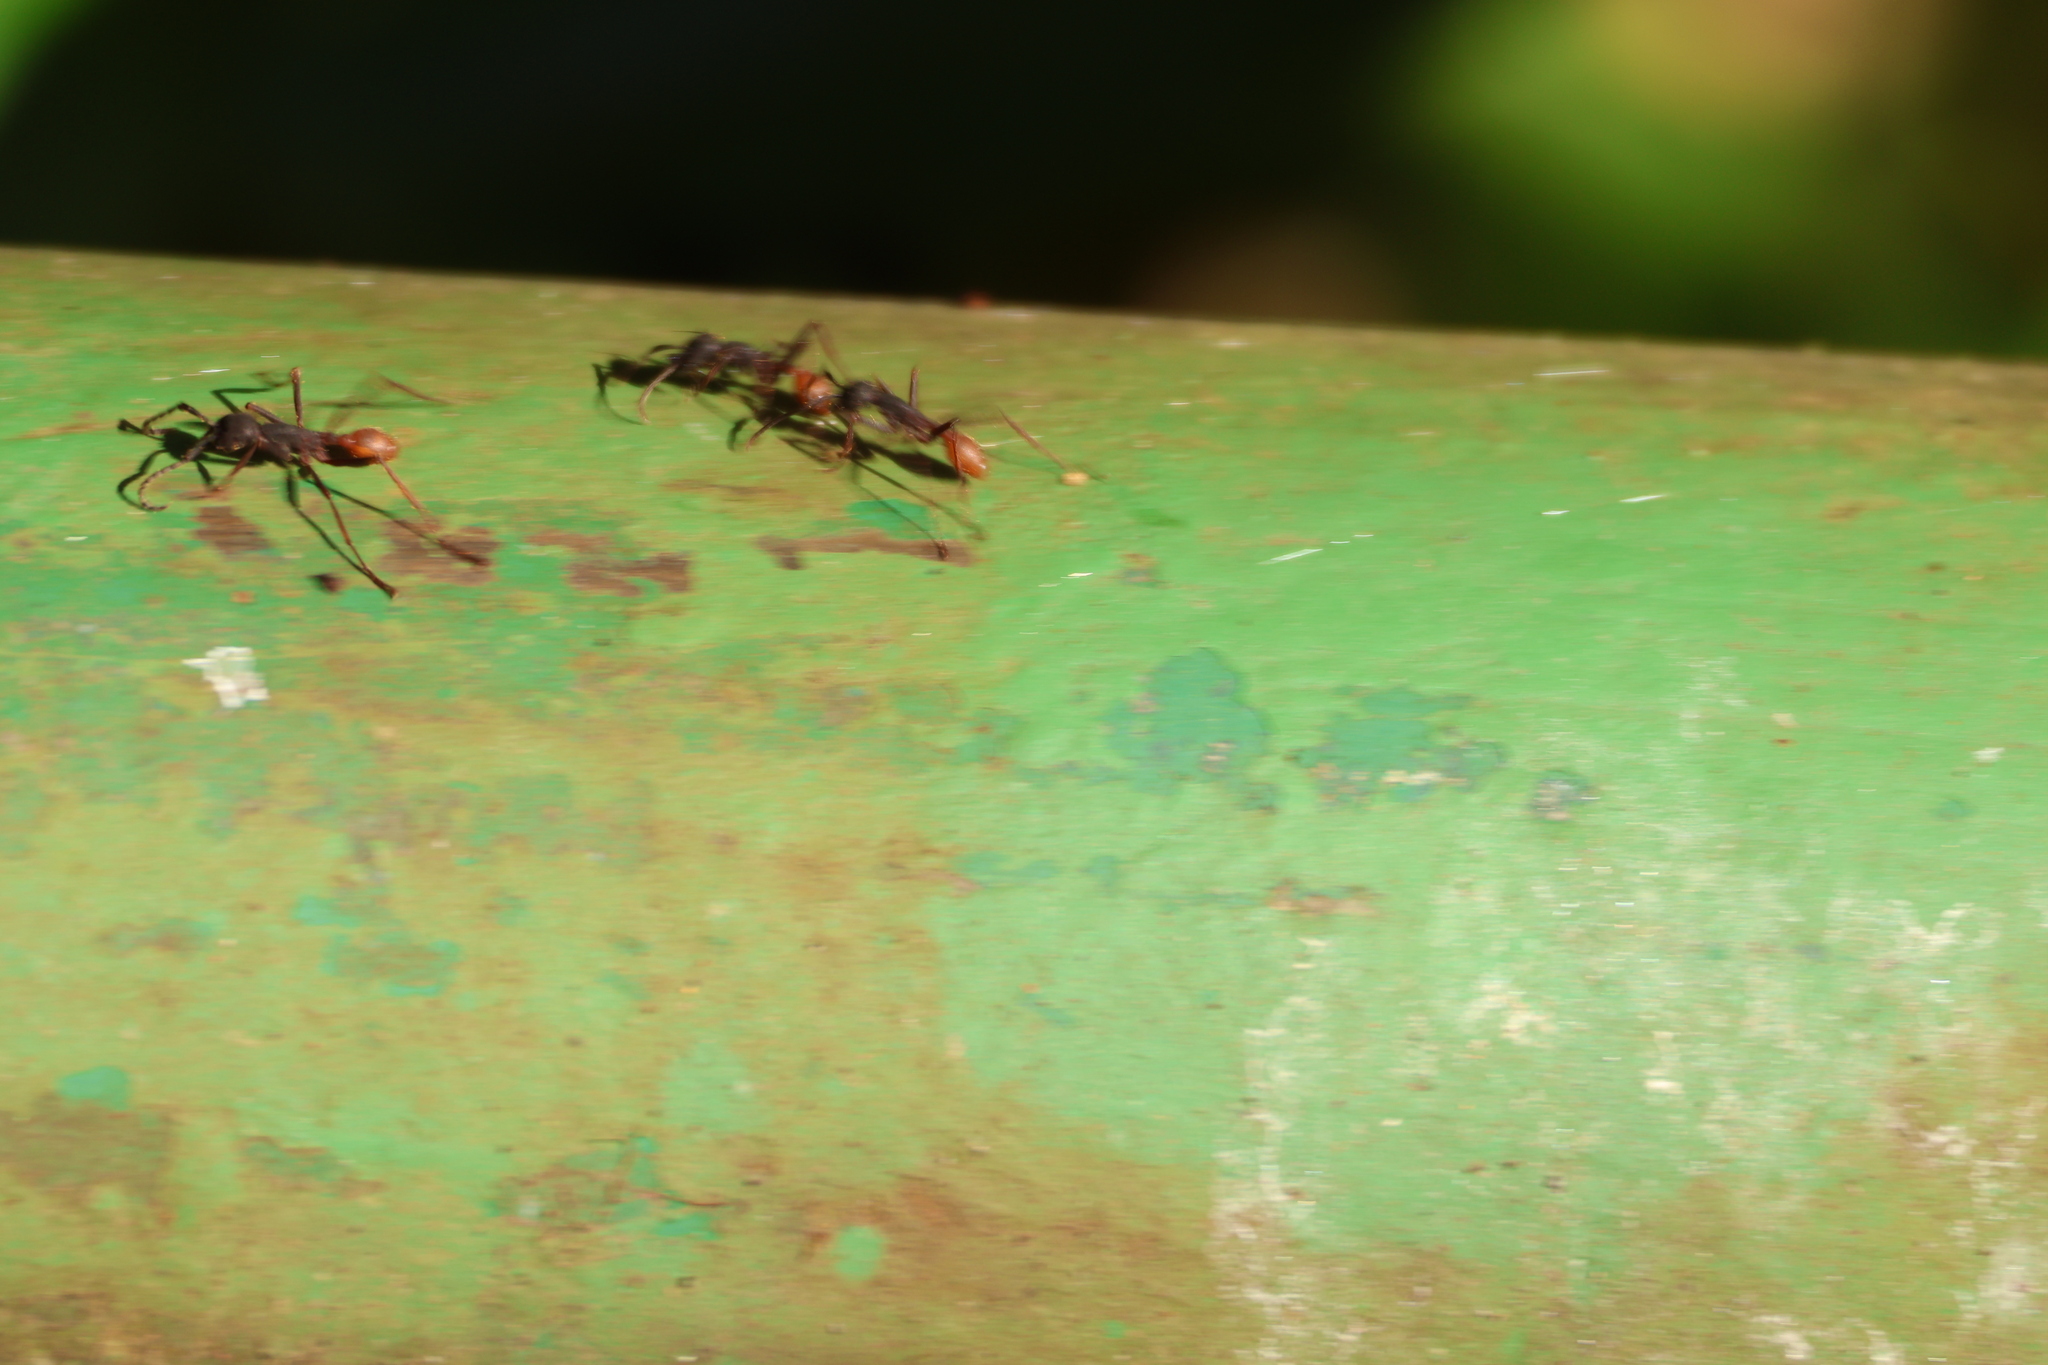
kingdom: Animalia
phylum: Arthropoda
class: Insecta
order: Hymenoptera
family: Formicidae
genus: Eciton
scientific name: Eciton burchellii
